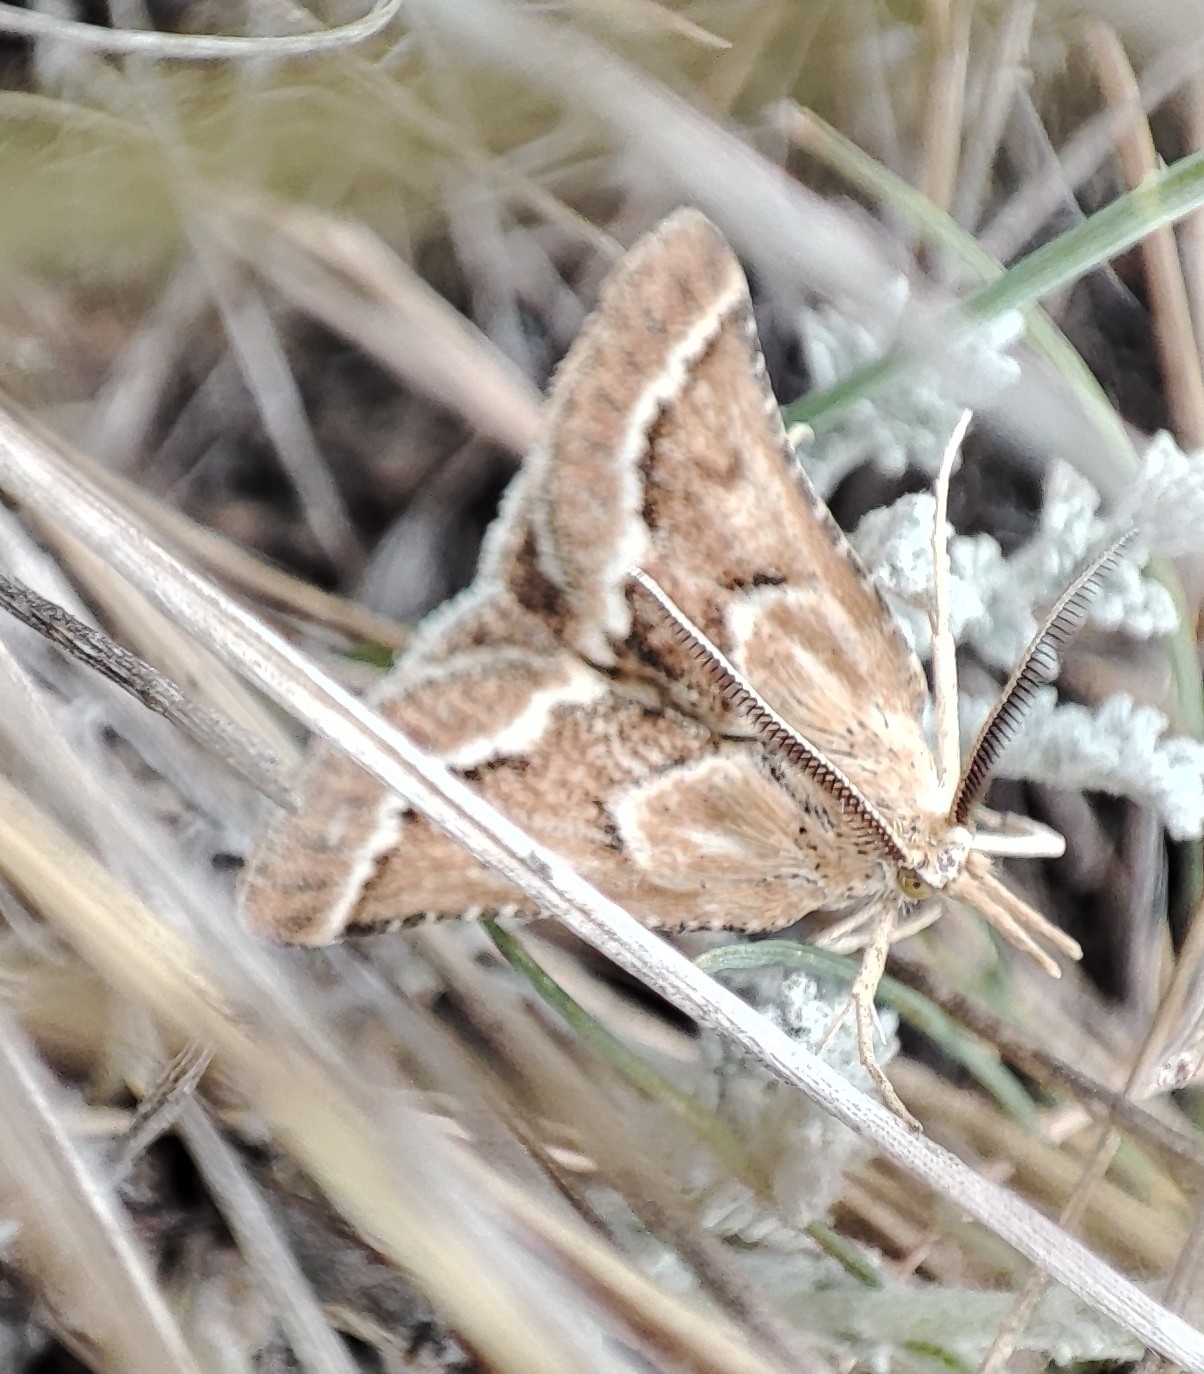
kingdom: Animalia
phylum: Arthropoda
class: Insecta
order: Lepidoptera
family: Pyralidae
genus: Synaphe
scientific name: Synaphe bombycalis
